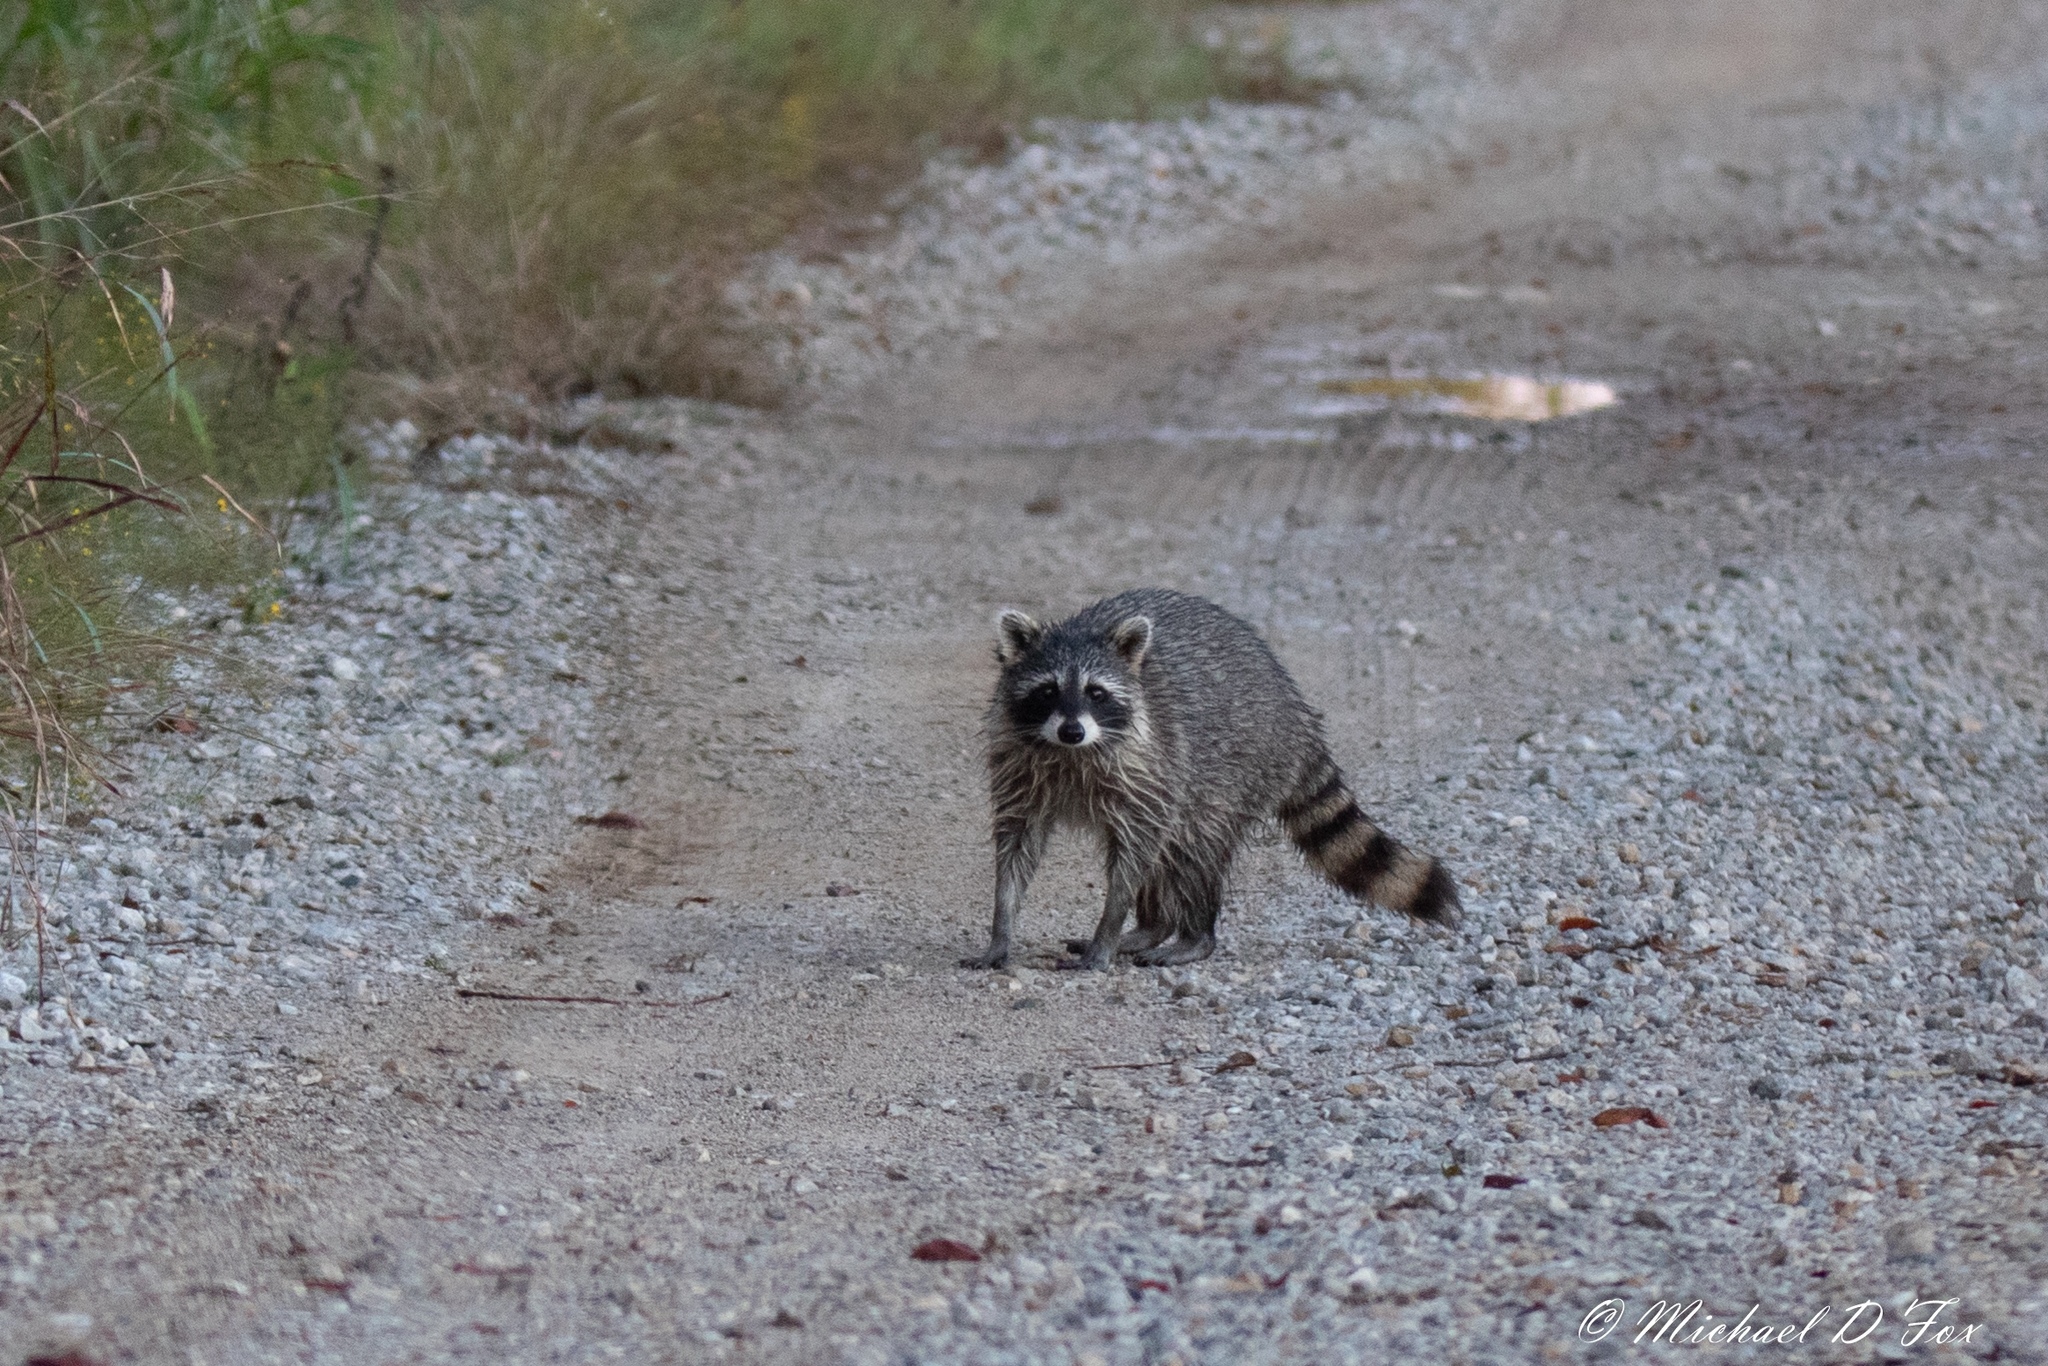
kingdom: Animalia
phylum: Chordata
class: Mammalia
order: Carnivora
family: Procyonidae
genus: Procyon
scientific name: Procyon lotor
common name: Raccoon
